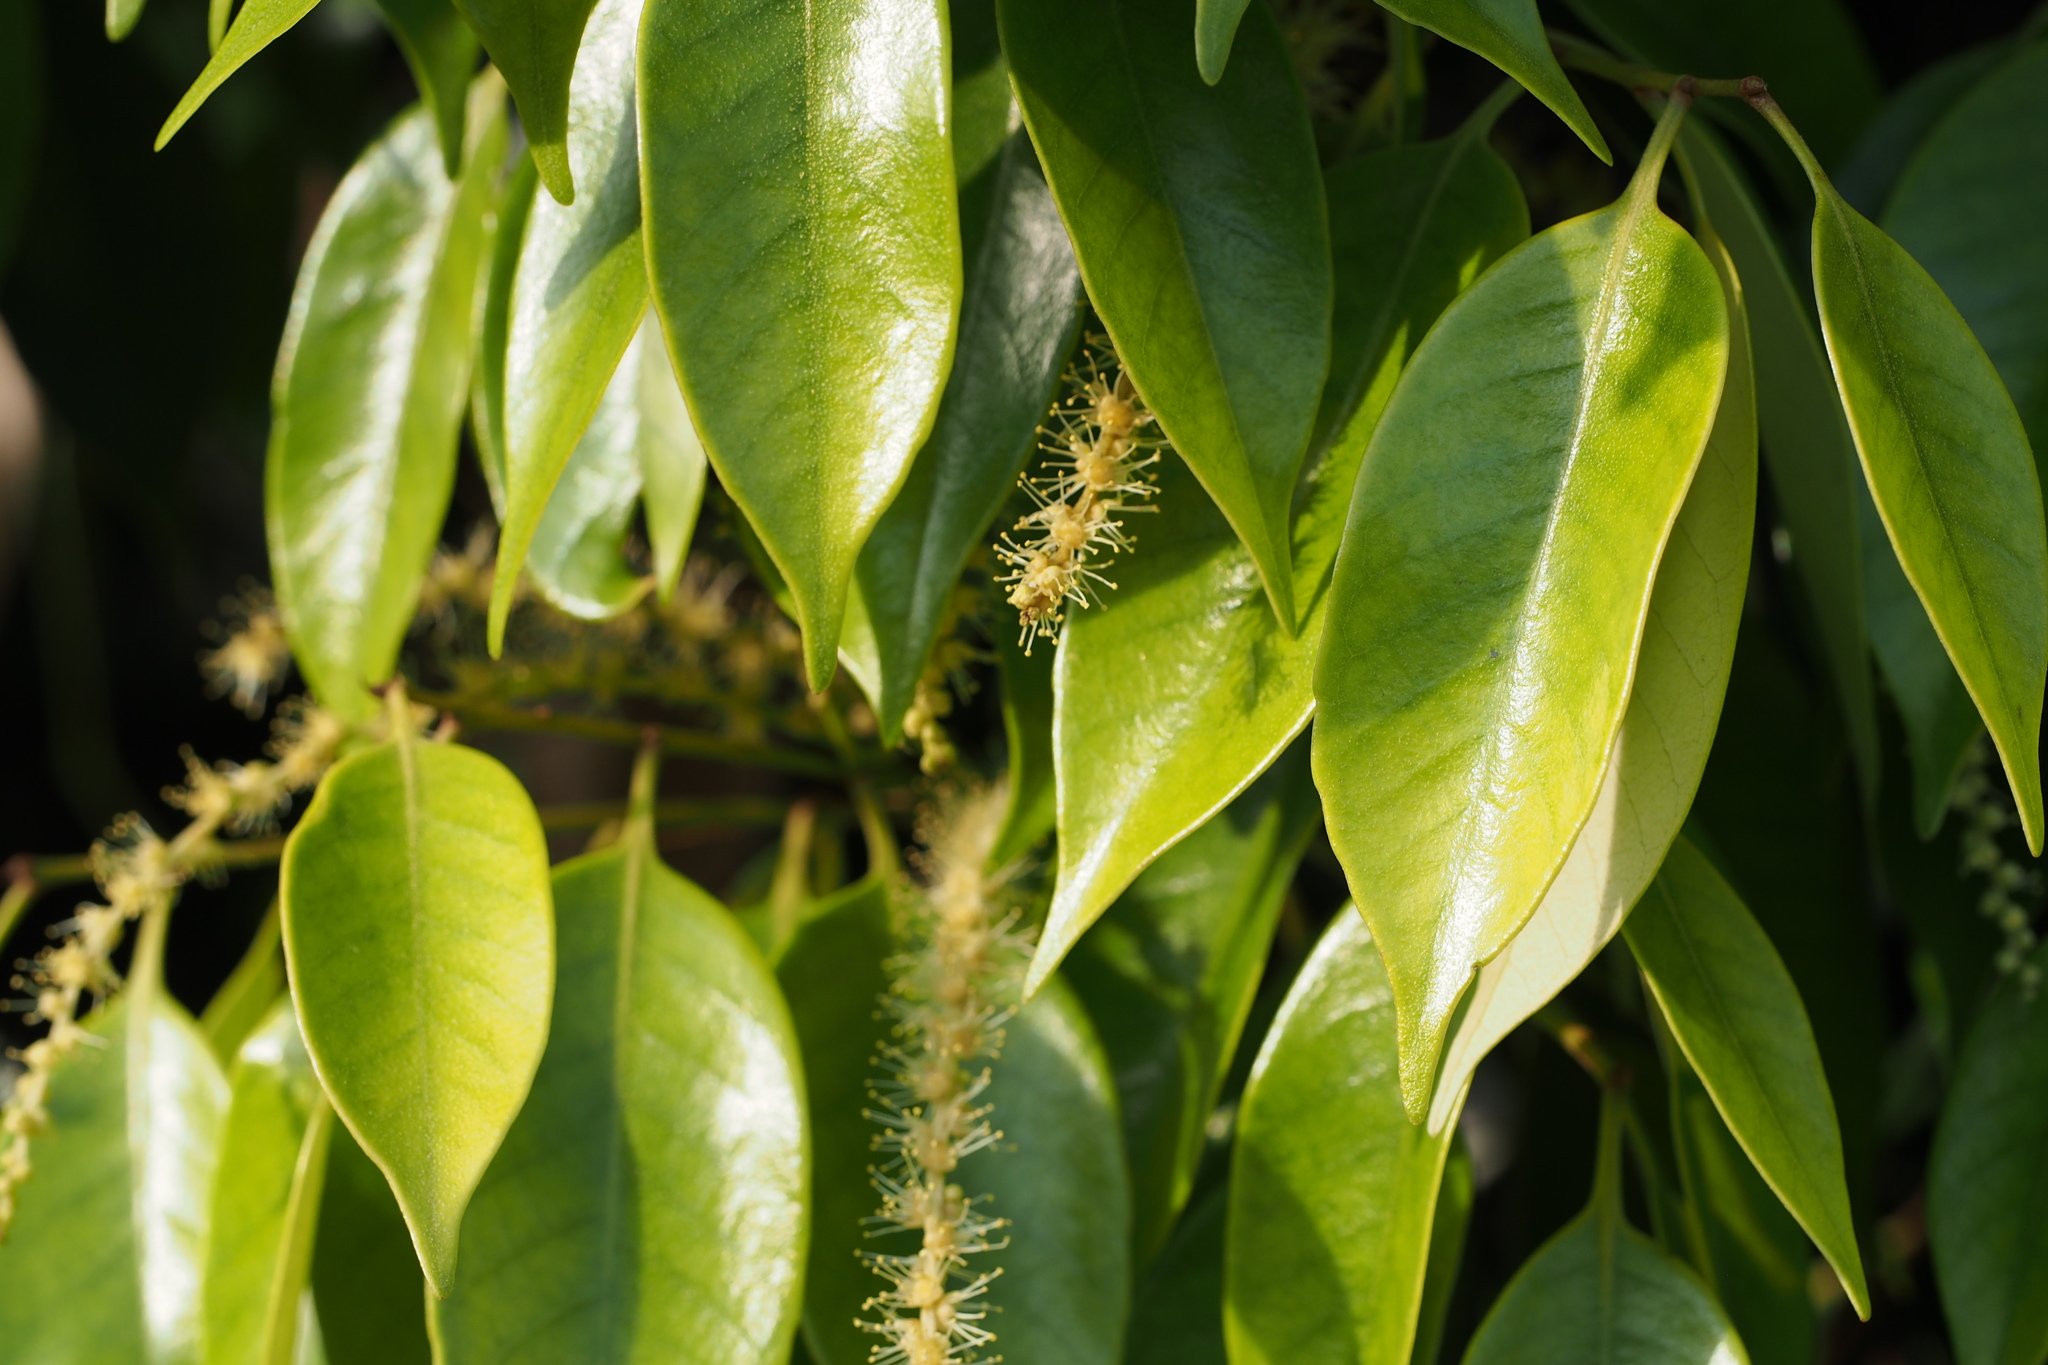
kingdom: Plantae
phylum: Tracheophyta
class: Magnoliopsida
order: Fagales
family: Fagaceae
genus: Castanopsis
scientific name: Castanopsis sieboldii
